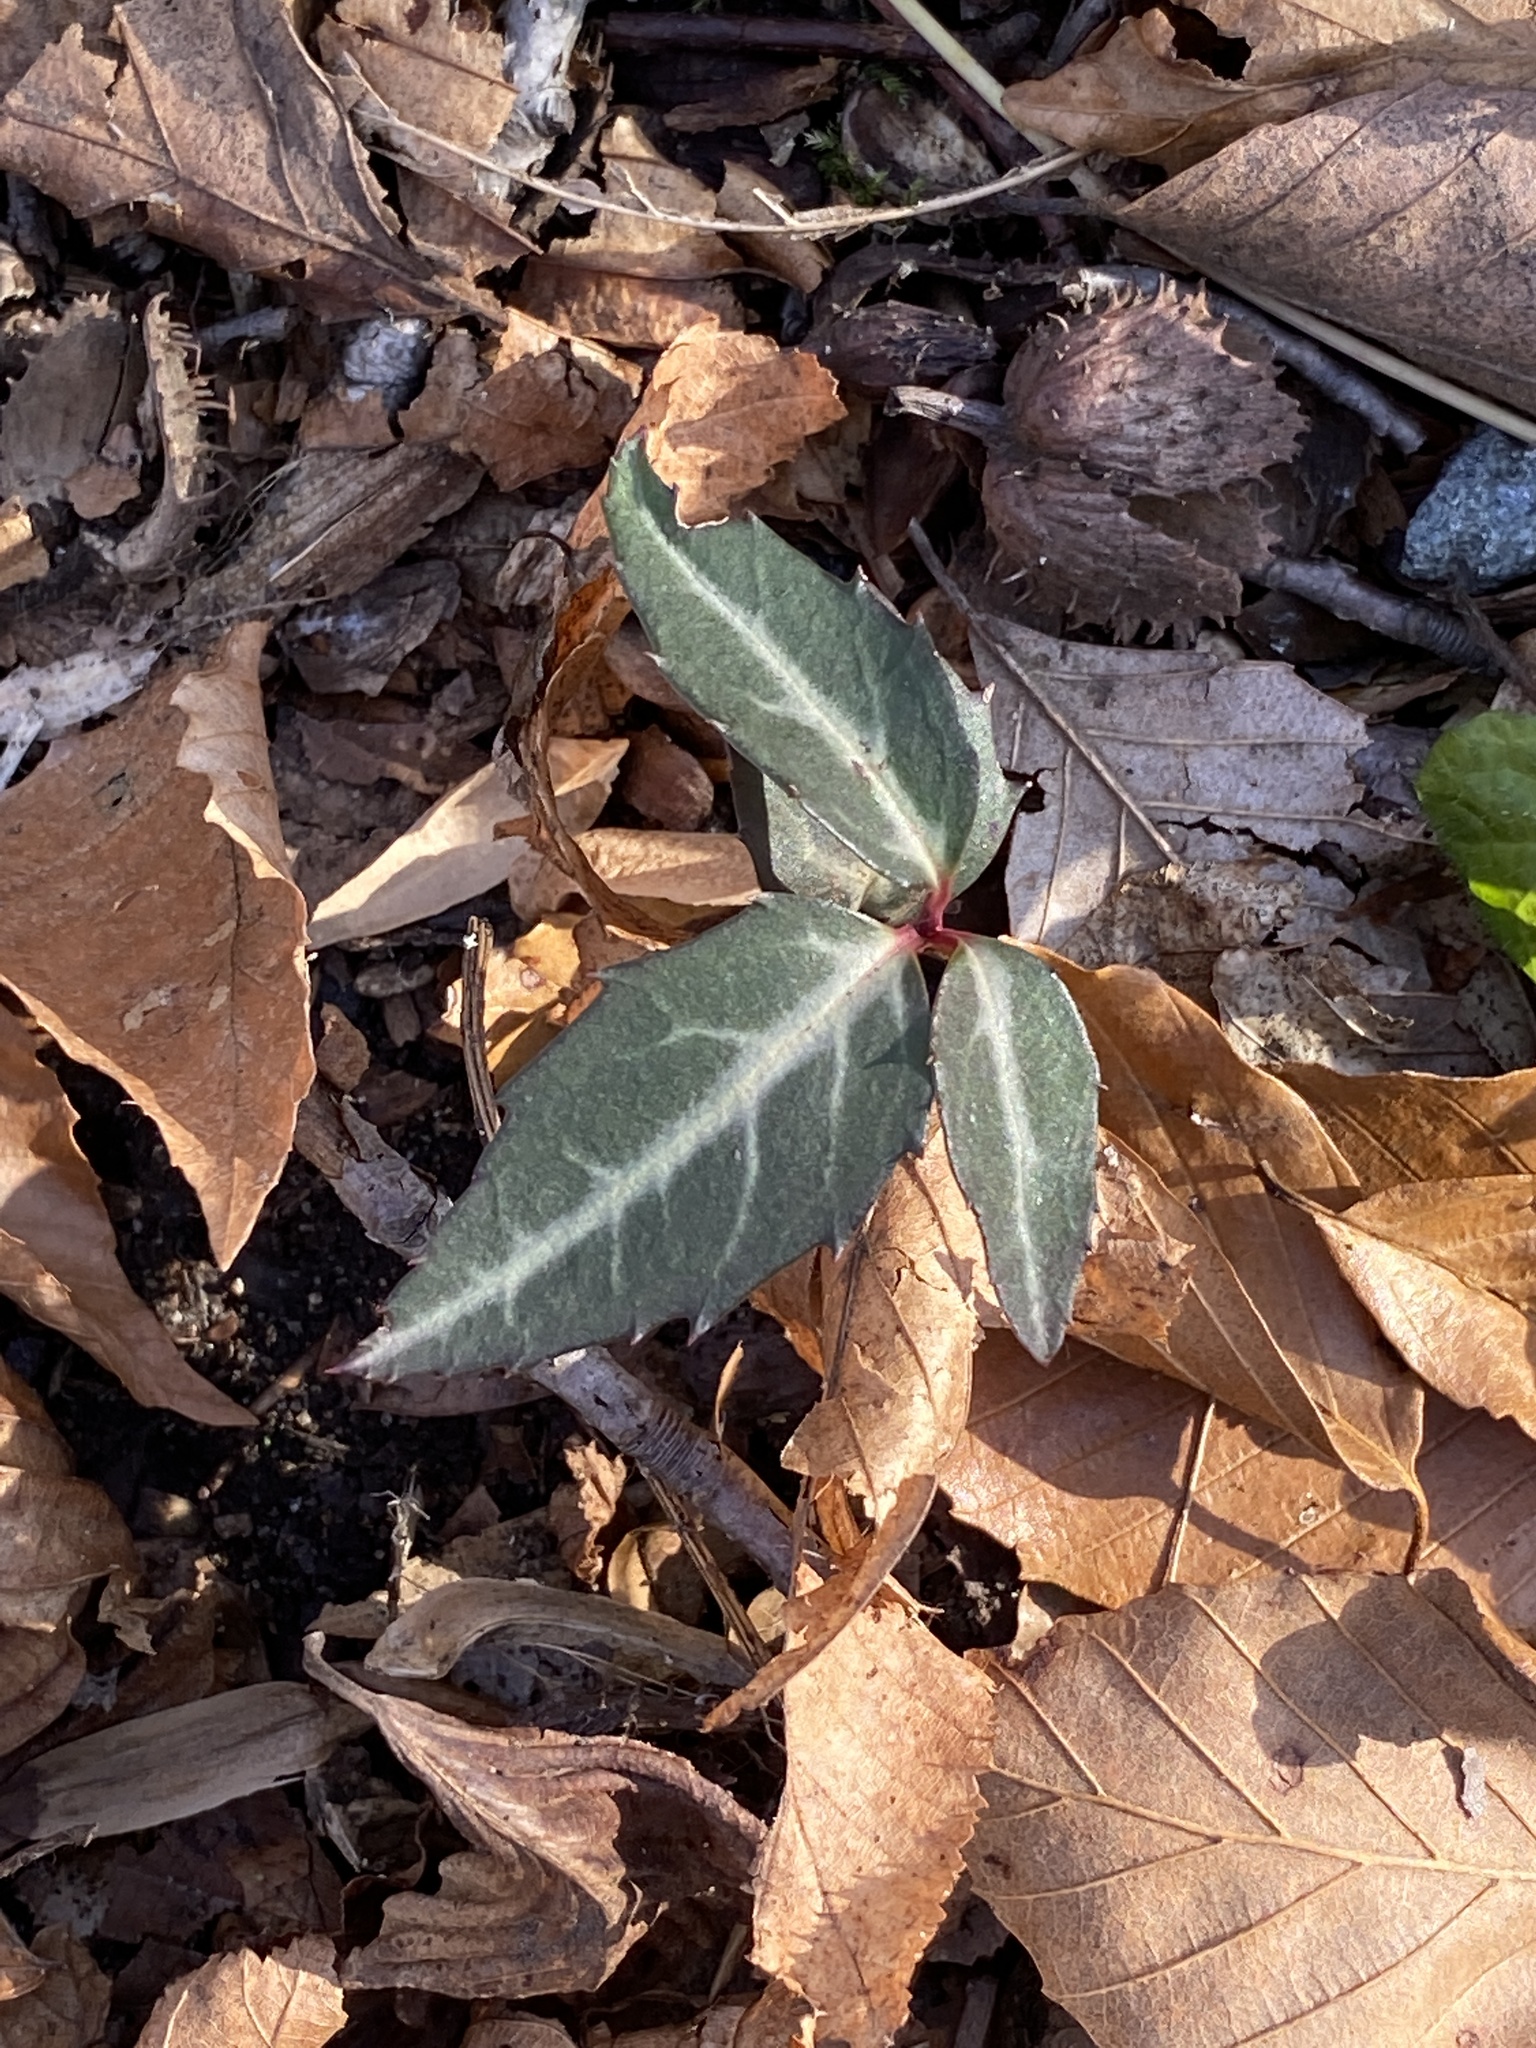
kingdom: Plantae
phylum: Tracheophyta
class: Magnoliopsida
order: Ericales
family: Ericaceae
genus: Chimaphila
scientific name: Chimaphila maculata
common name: Spotted pipsissewa
